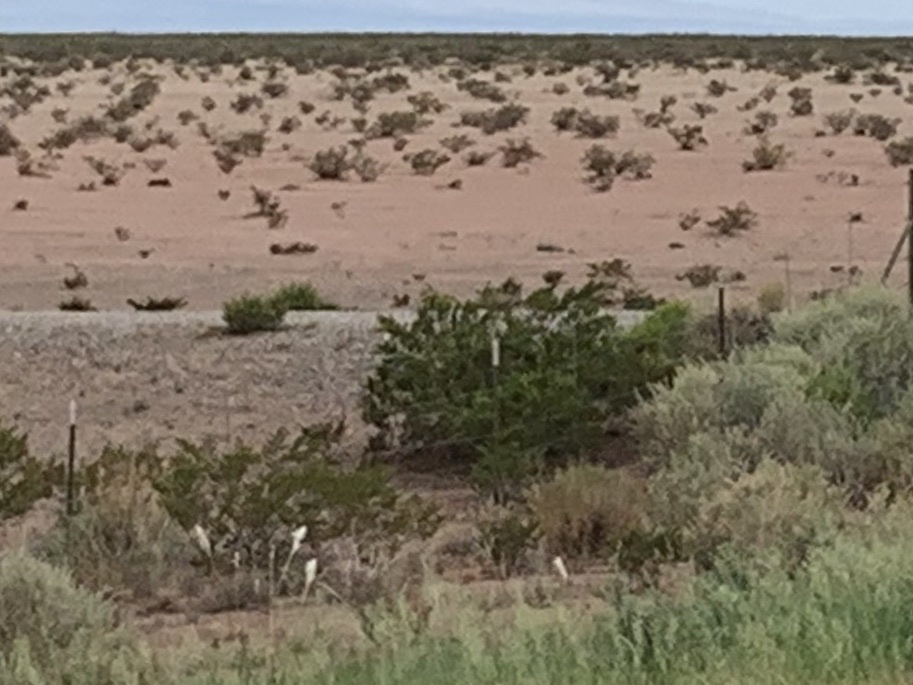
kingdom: Plantae
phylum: Tracheophyta
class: Magnoliopsida
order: Zygophyllales
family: Zygophyllaceae
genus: Larrea
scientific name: Larrea tridentata
